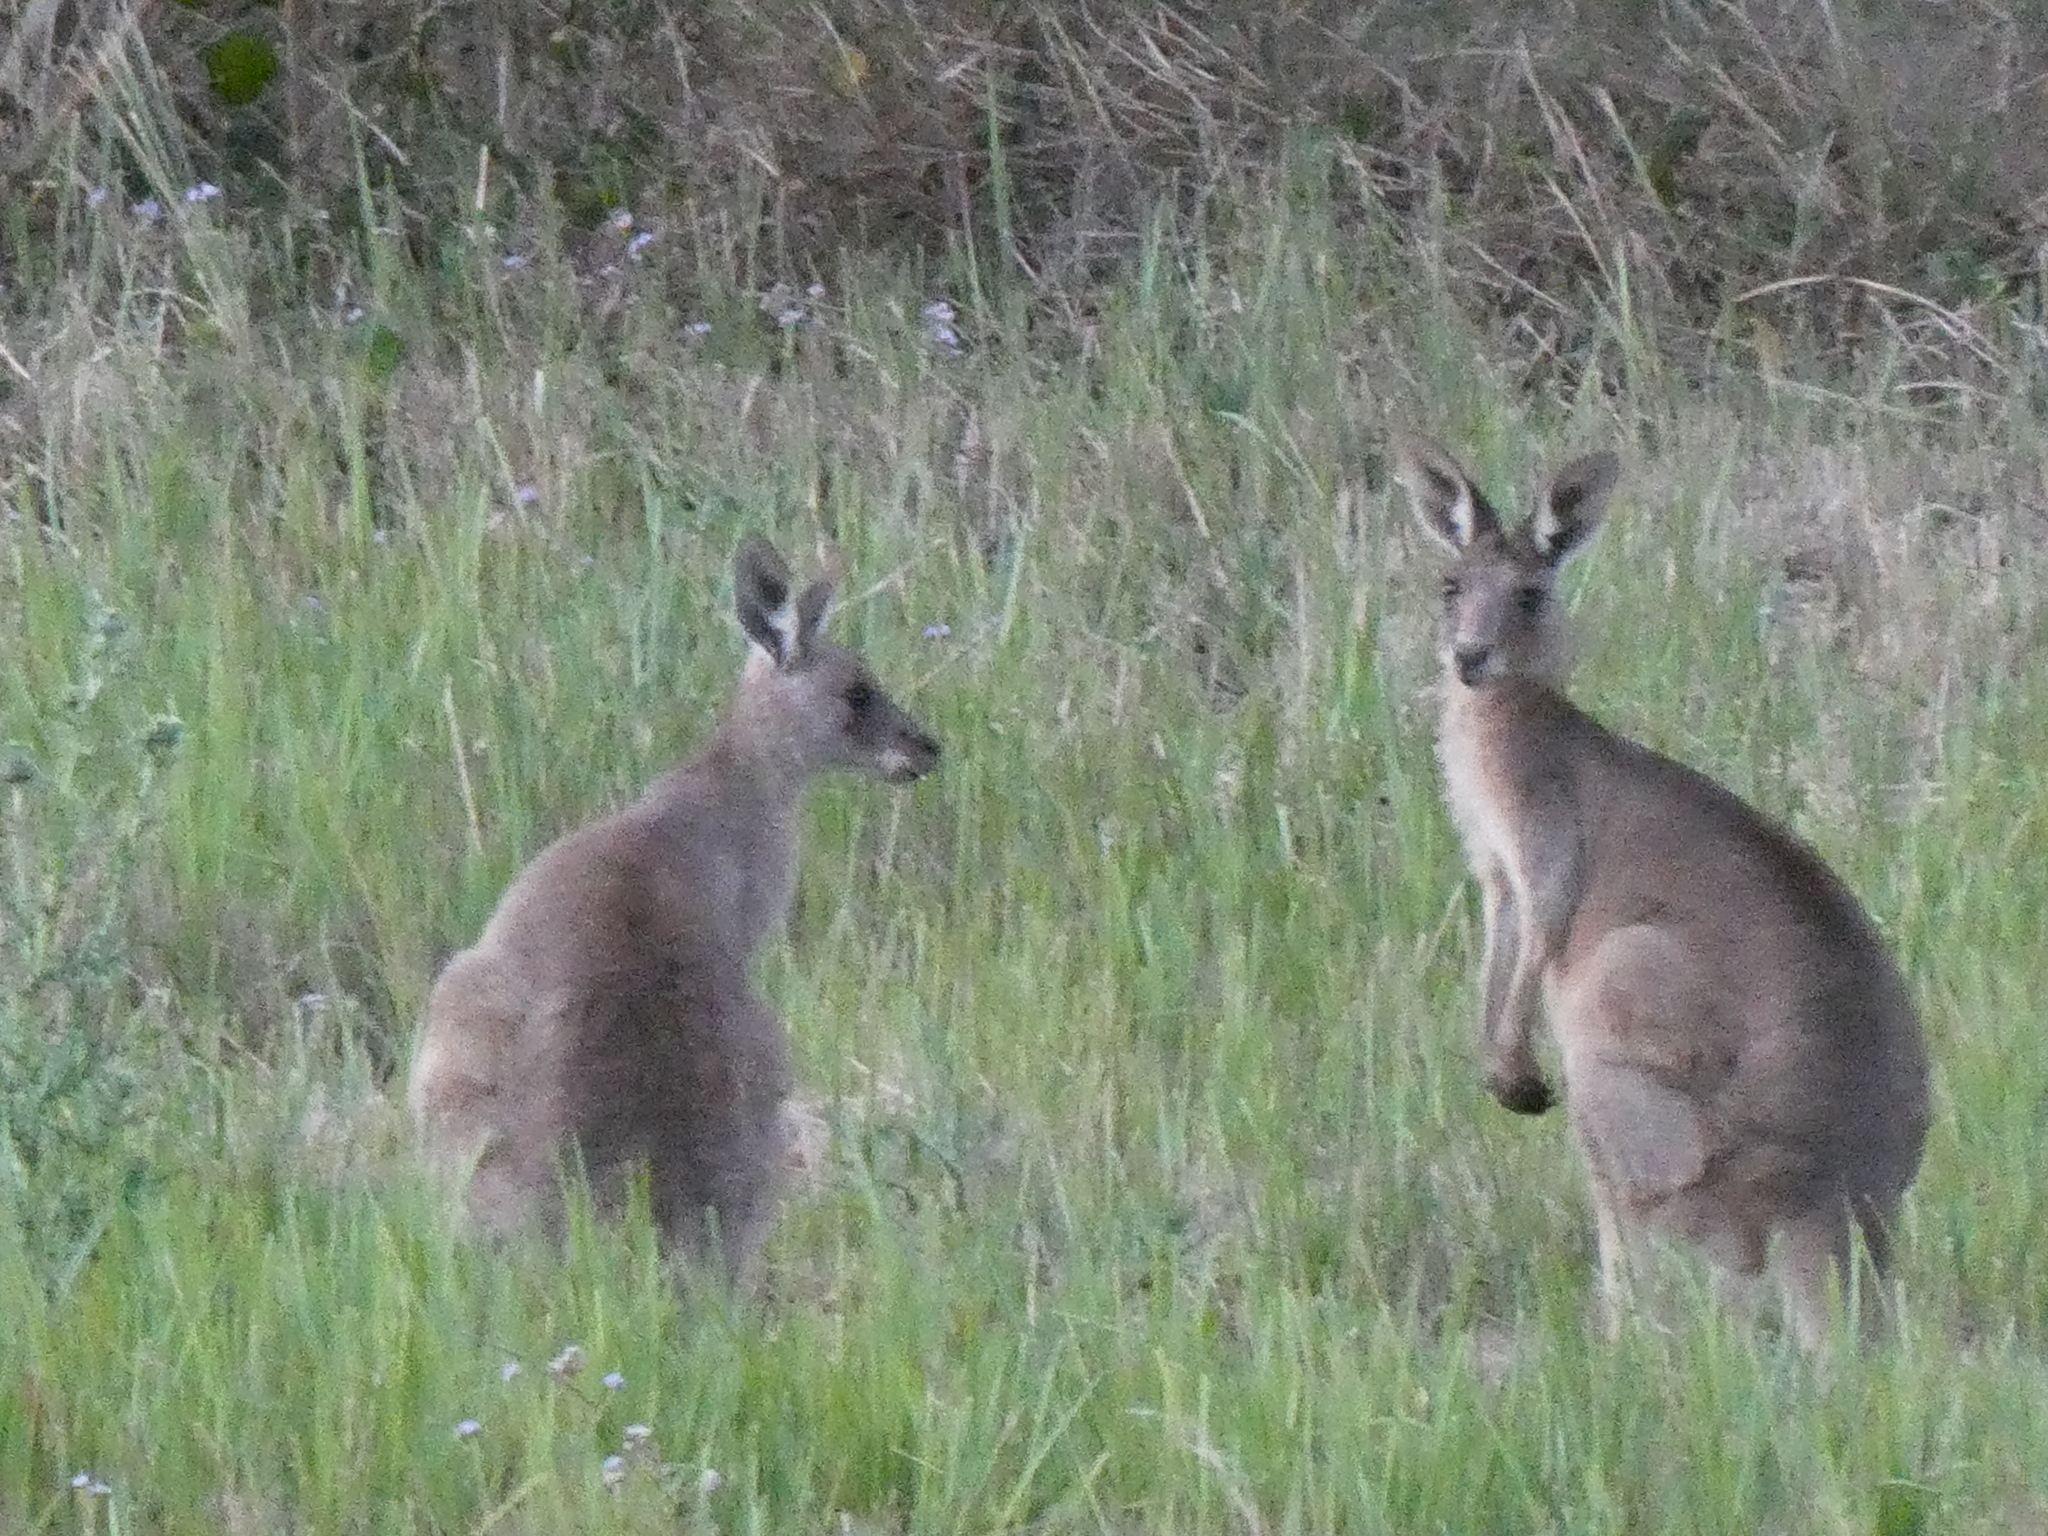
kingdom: Animalia
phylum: Chordata
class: Mammalia
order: Diprotodontia
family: Macropodidae
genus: Macropus
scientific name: Macropus giganteus
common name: Eastern grey kangaroo
